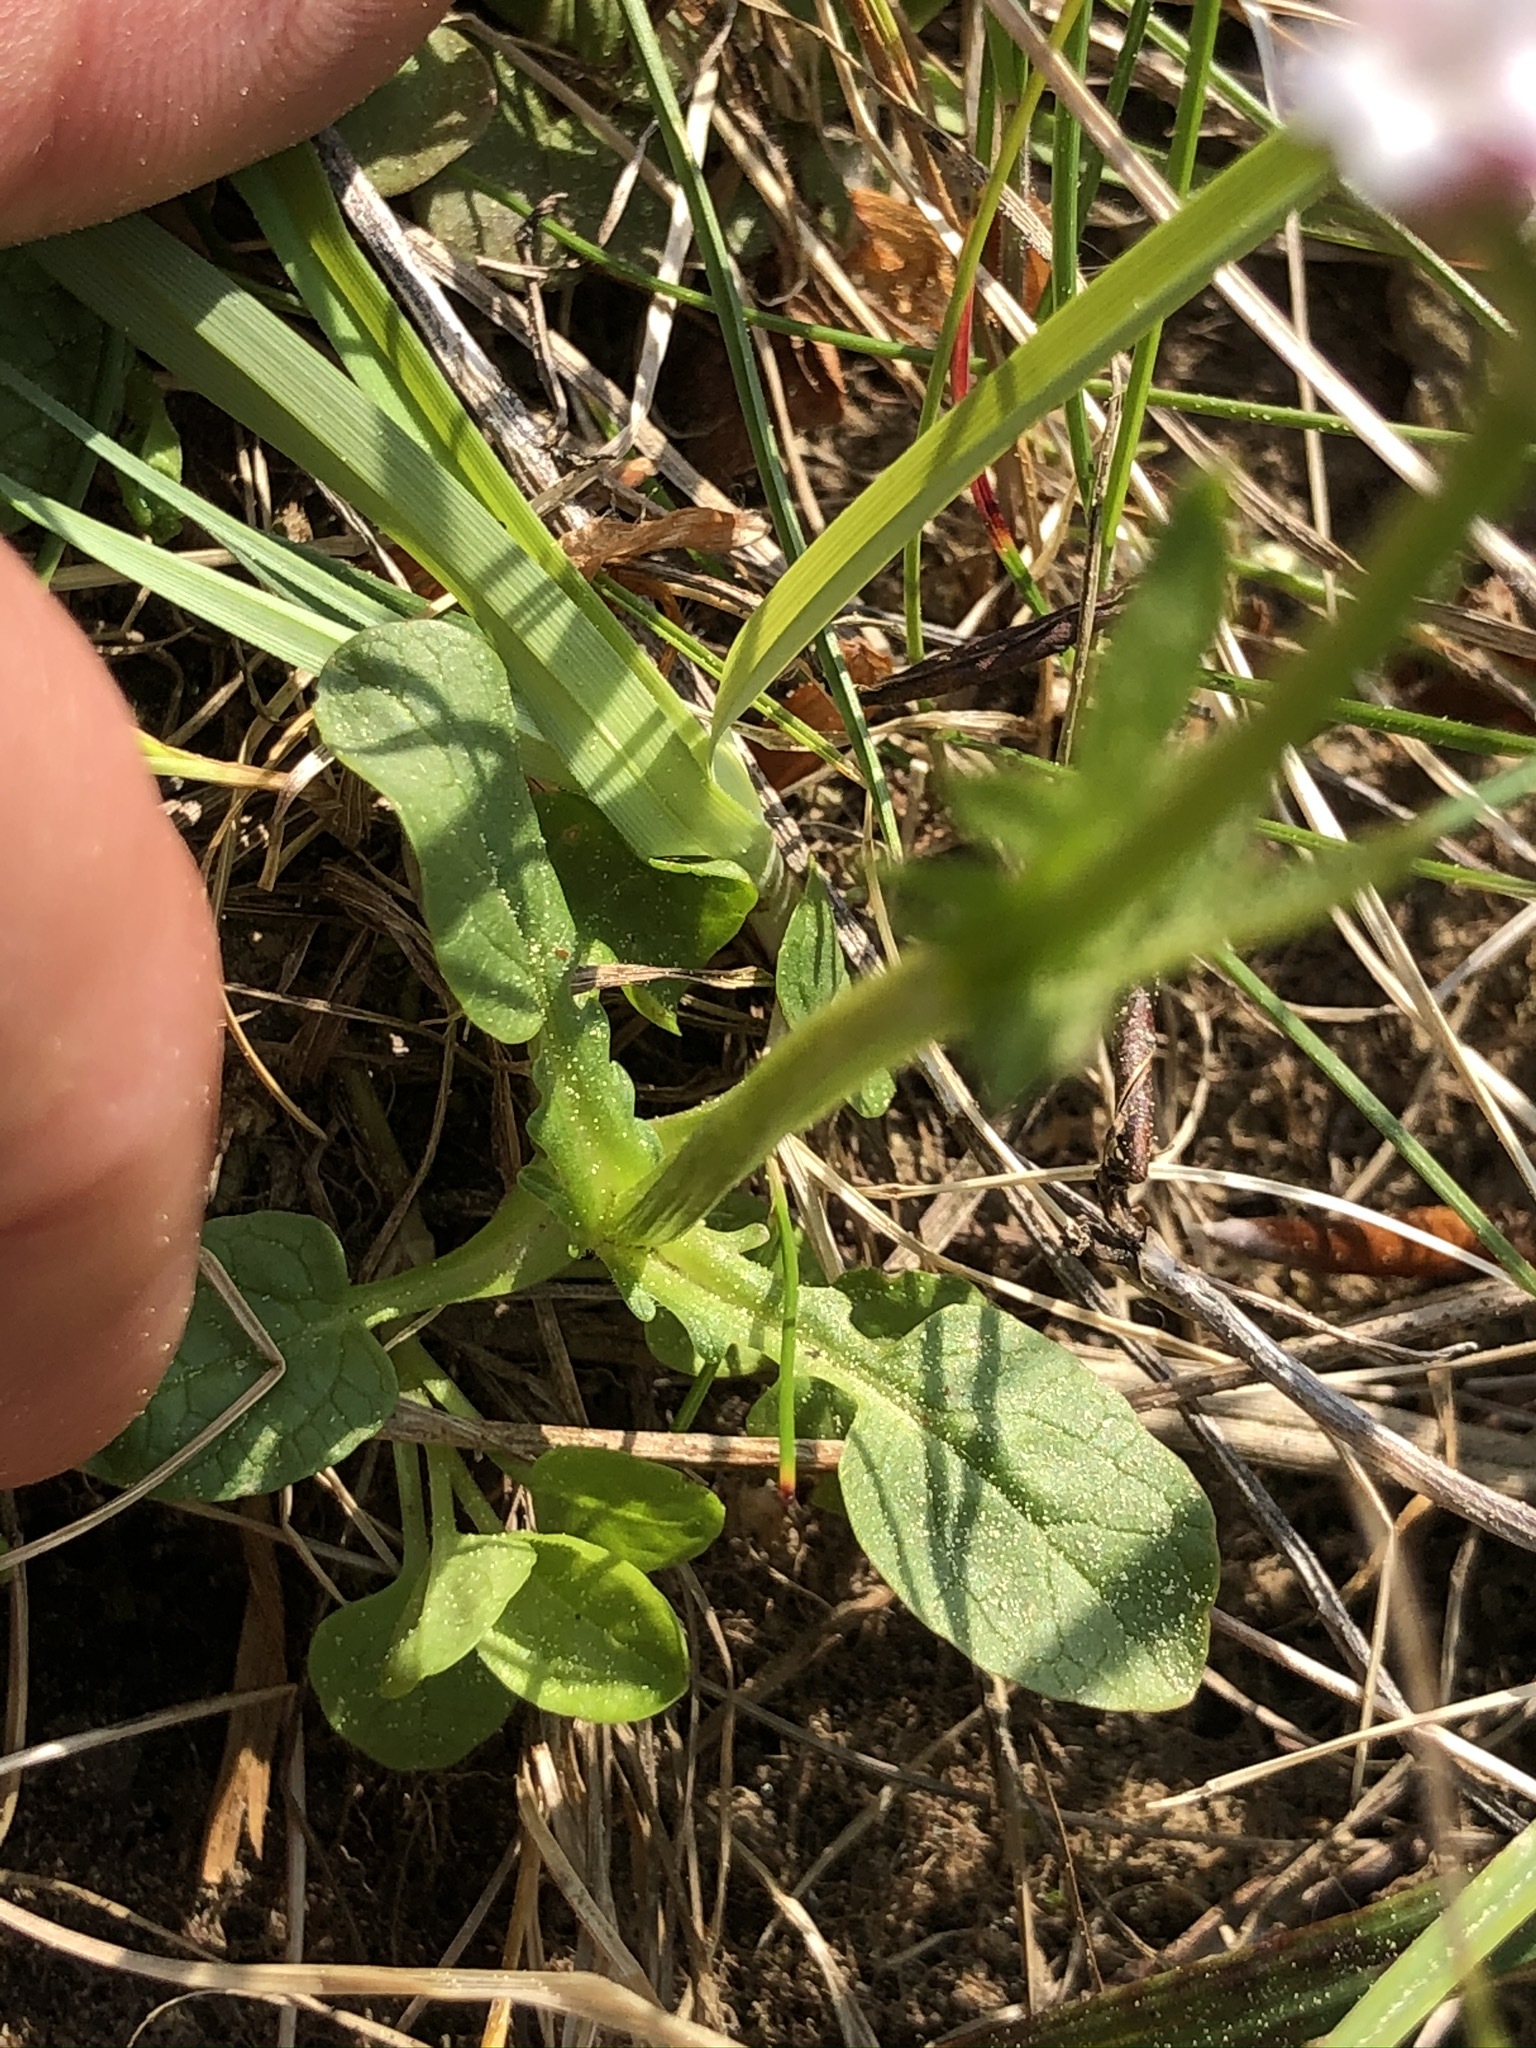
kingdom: Plantae
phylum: Tracheophyta
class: Magnoliopsida
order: Dipsacales
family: Caprifoliaceae
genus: Valeriana
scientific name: Valeriana dioica
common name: Marsh valerian
